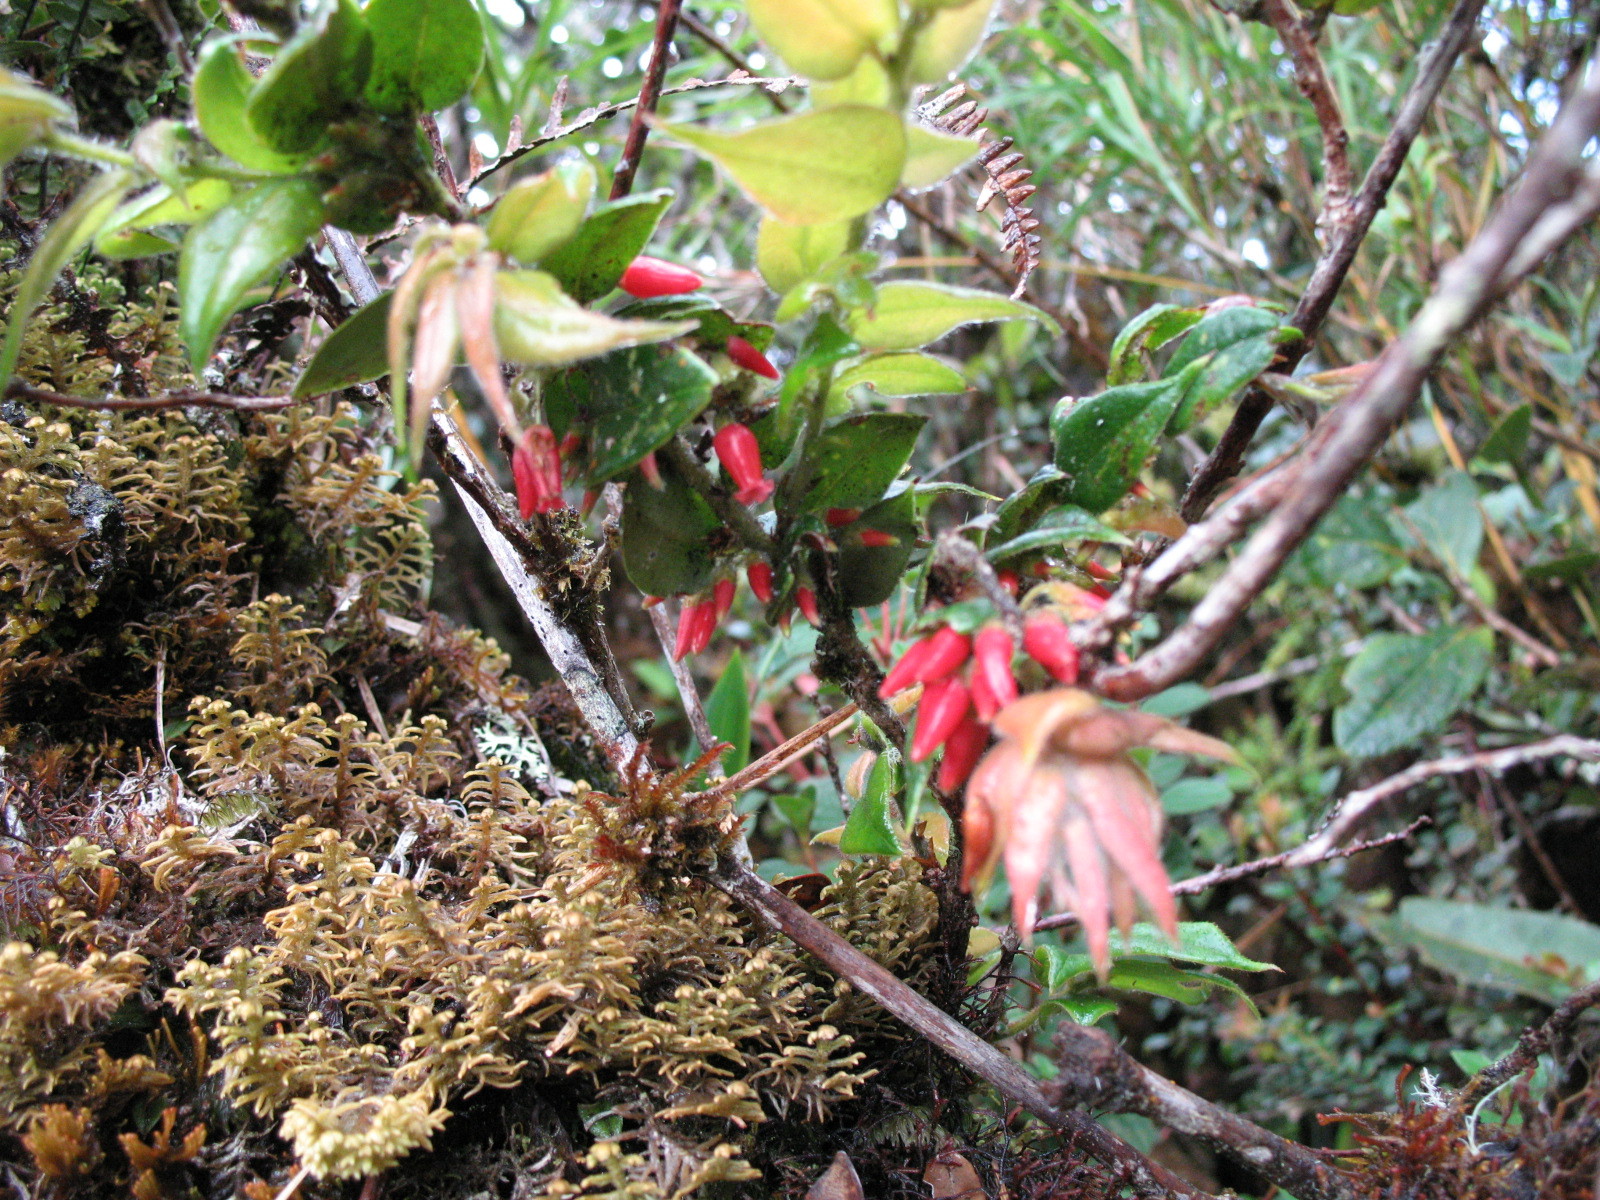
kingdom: Plantae
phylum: Tracheophyta
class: Magnoliopsida
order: Ericales
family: Ericaceae
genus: Themistoclesia
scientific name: Themistoclesia epiphytica
